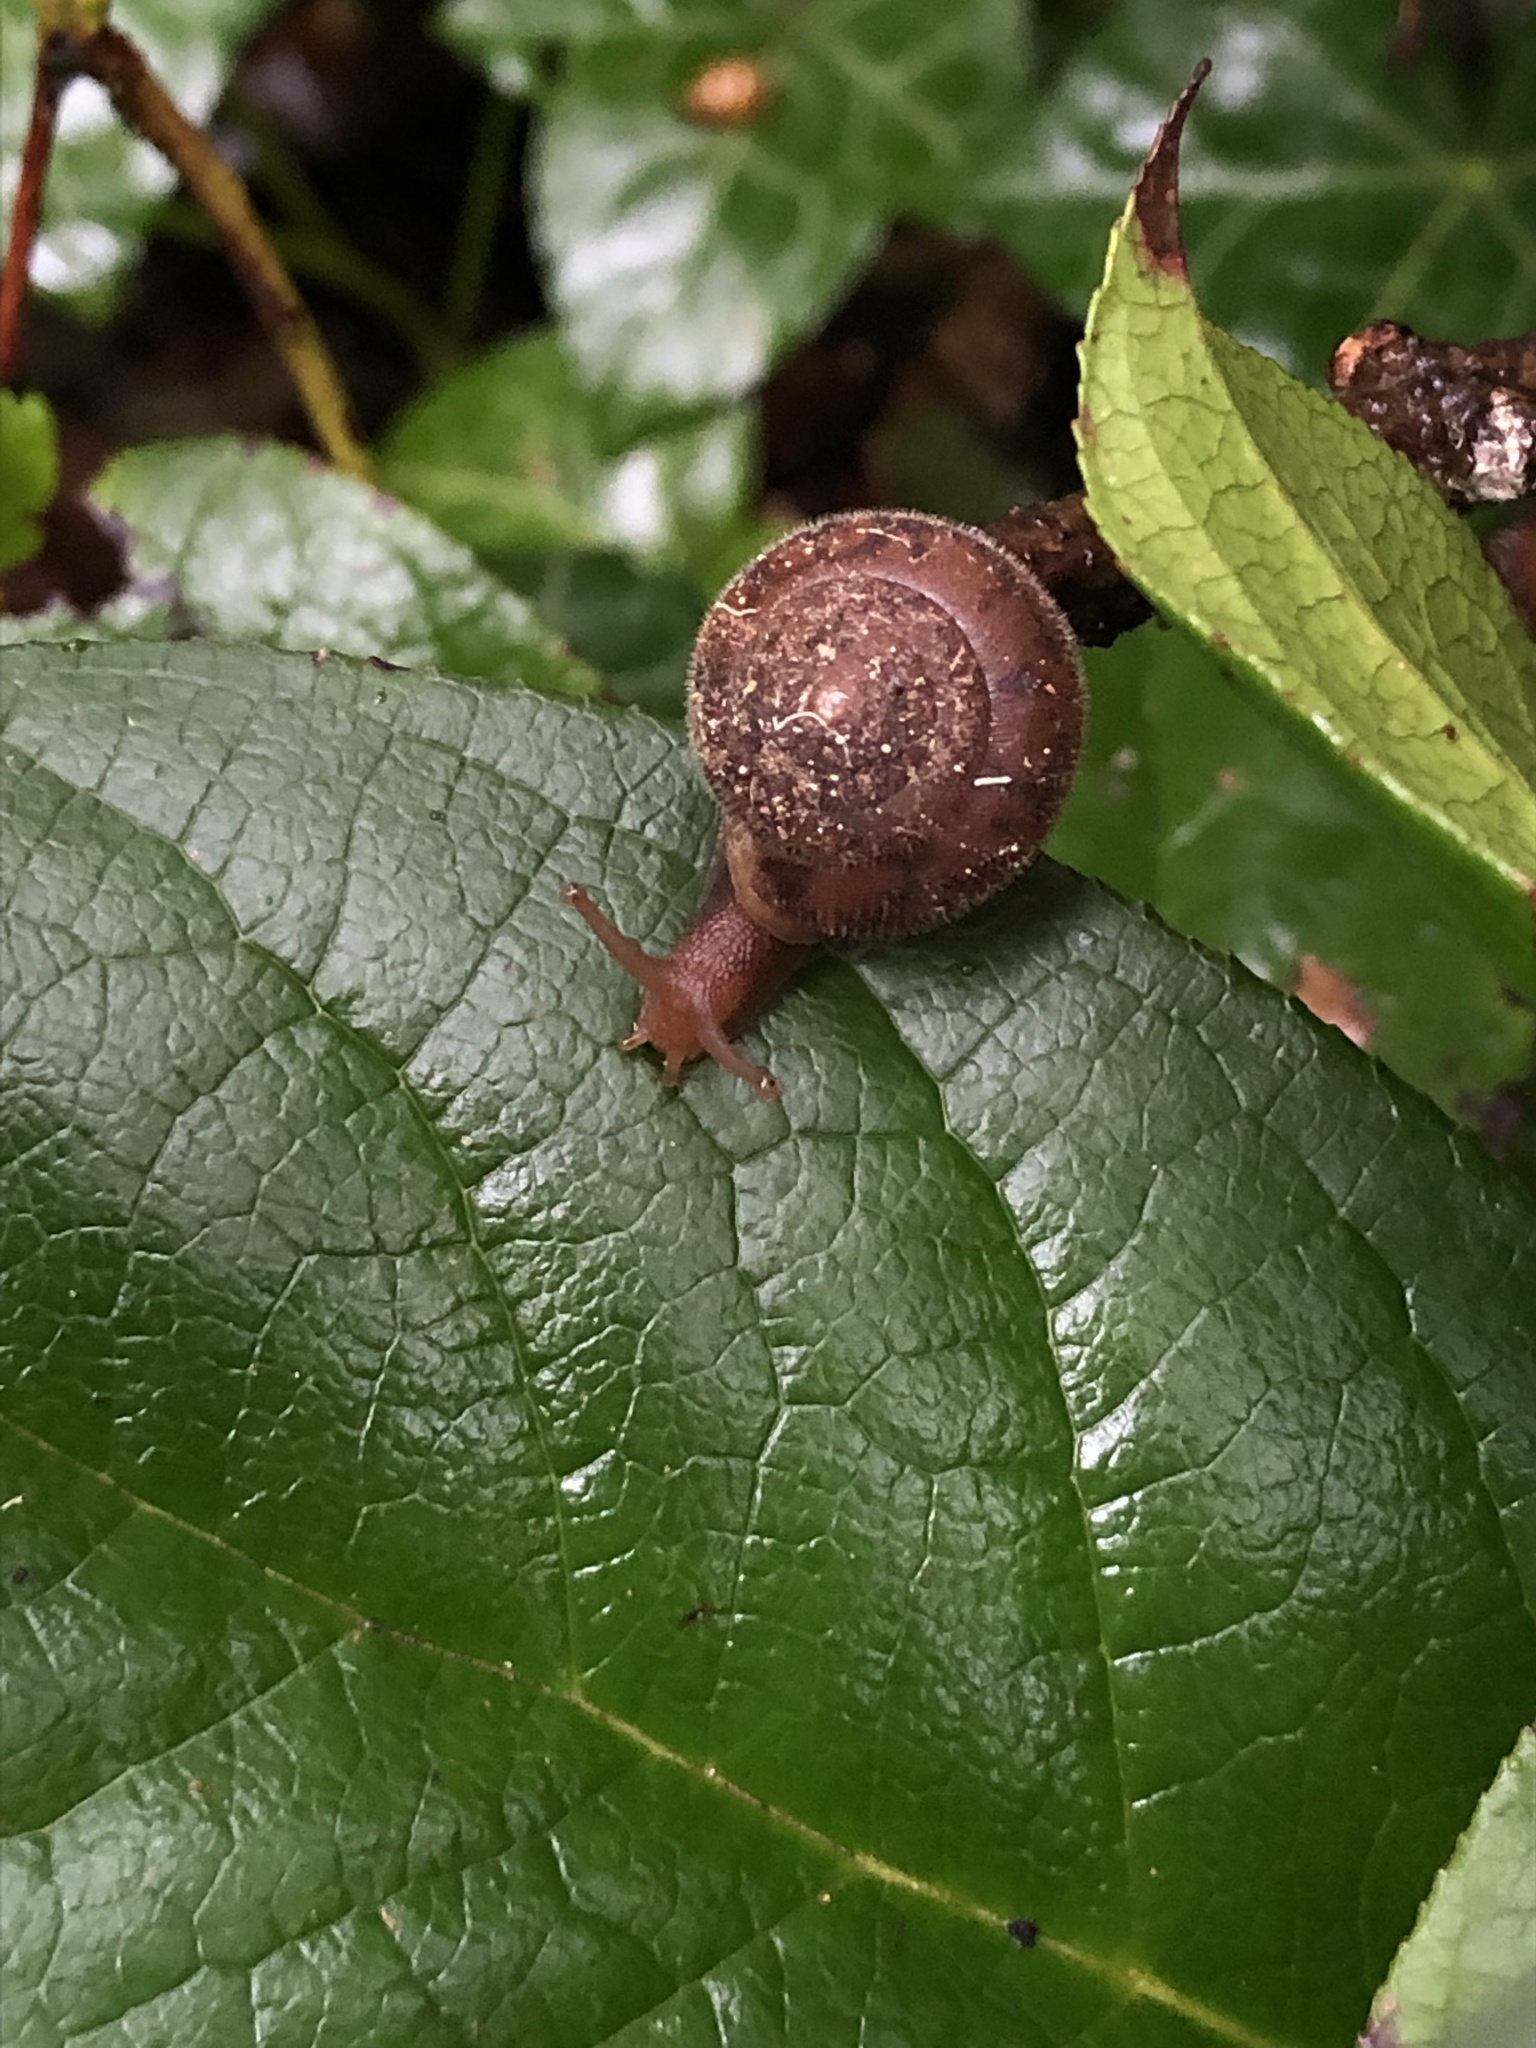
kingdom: Animalia
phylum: Mollusca
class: Gastropoda
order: Stylommatophora
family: Polygyridae
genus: Vespericola
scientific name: Vespericola columbianus
